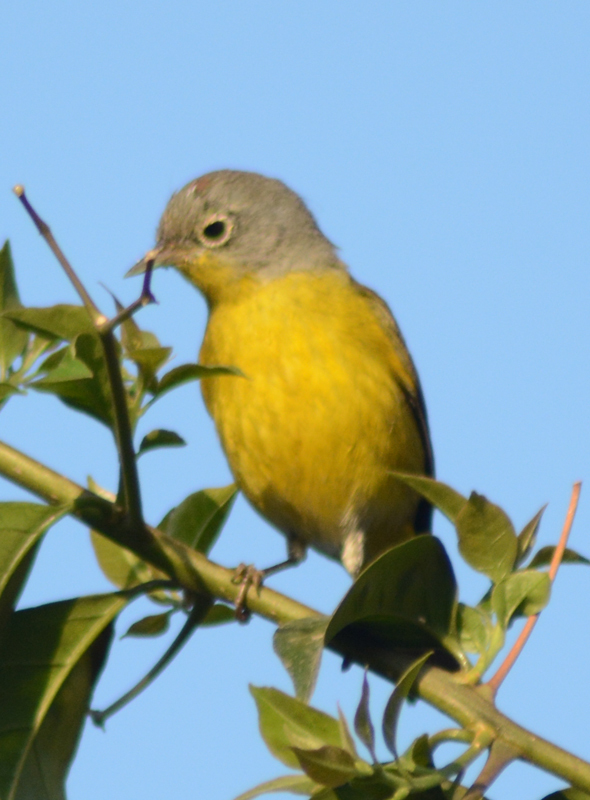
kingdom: Animalia
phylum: Chordata
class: Aves
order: Passeriformes
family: Parulidae
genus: Leiothlypis
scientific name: Leiothlypis ruficapilla
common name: Nashville warbler
